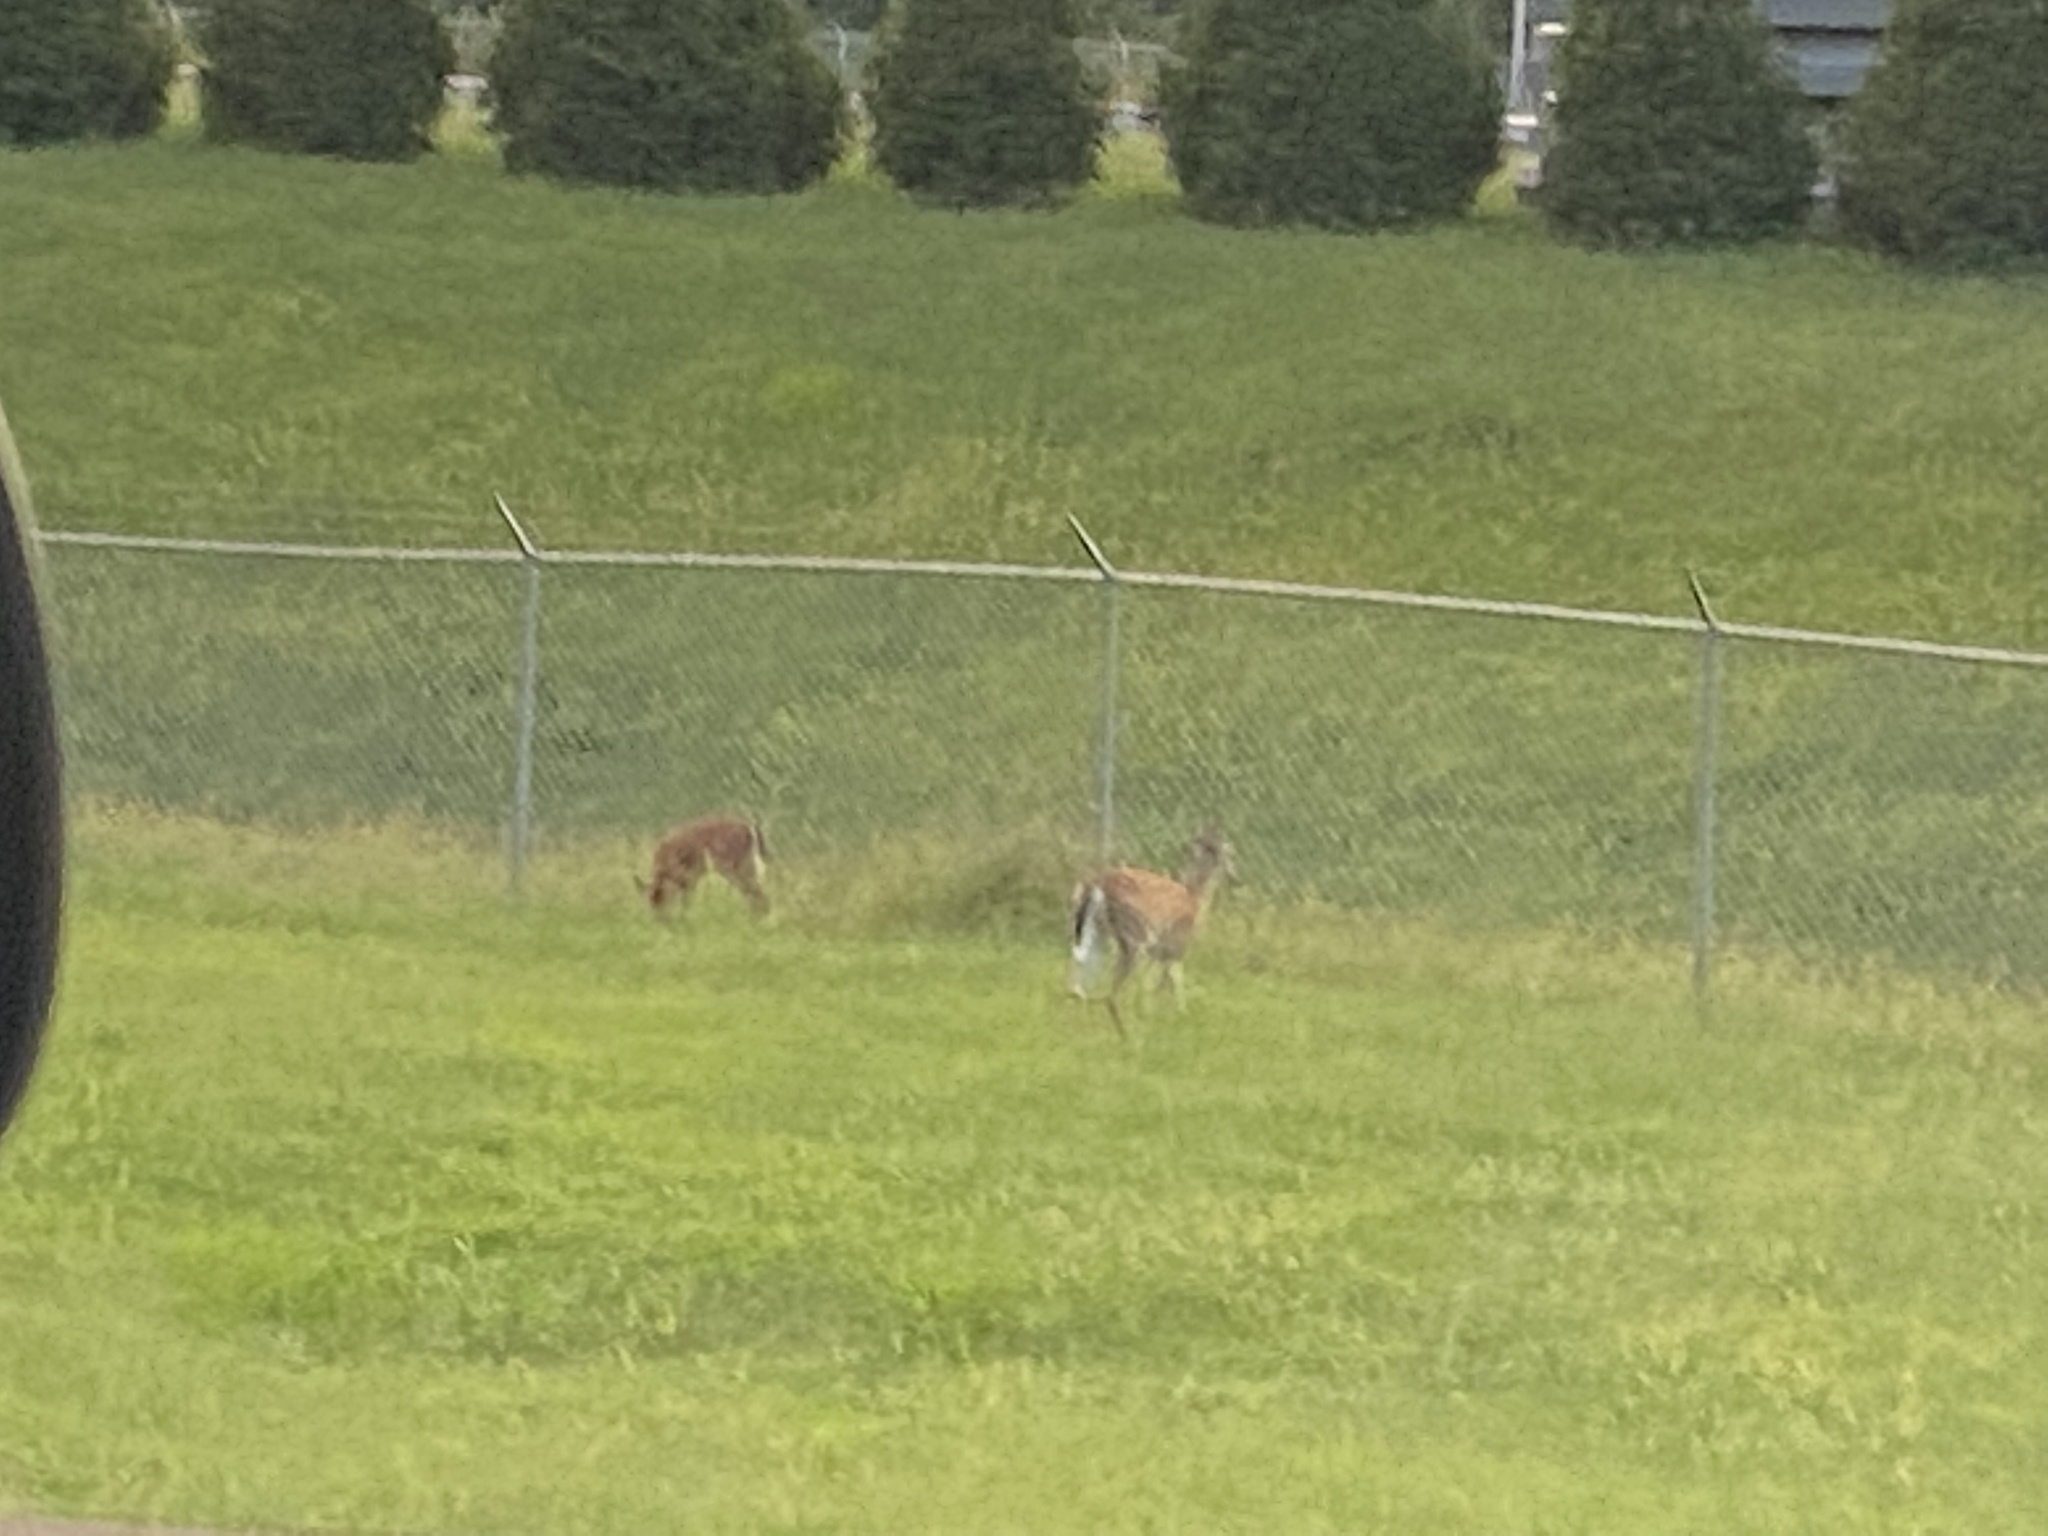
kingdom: Animalia
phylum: Chordata
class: Mammalia
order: Artiodactyla
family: Cervidae
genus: Odocoileus
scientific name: Odocoileus virginianus
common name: White-tailed deer
